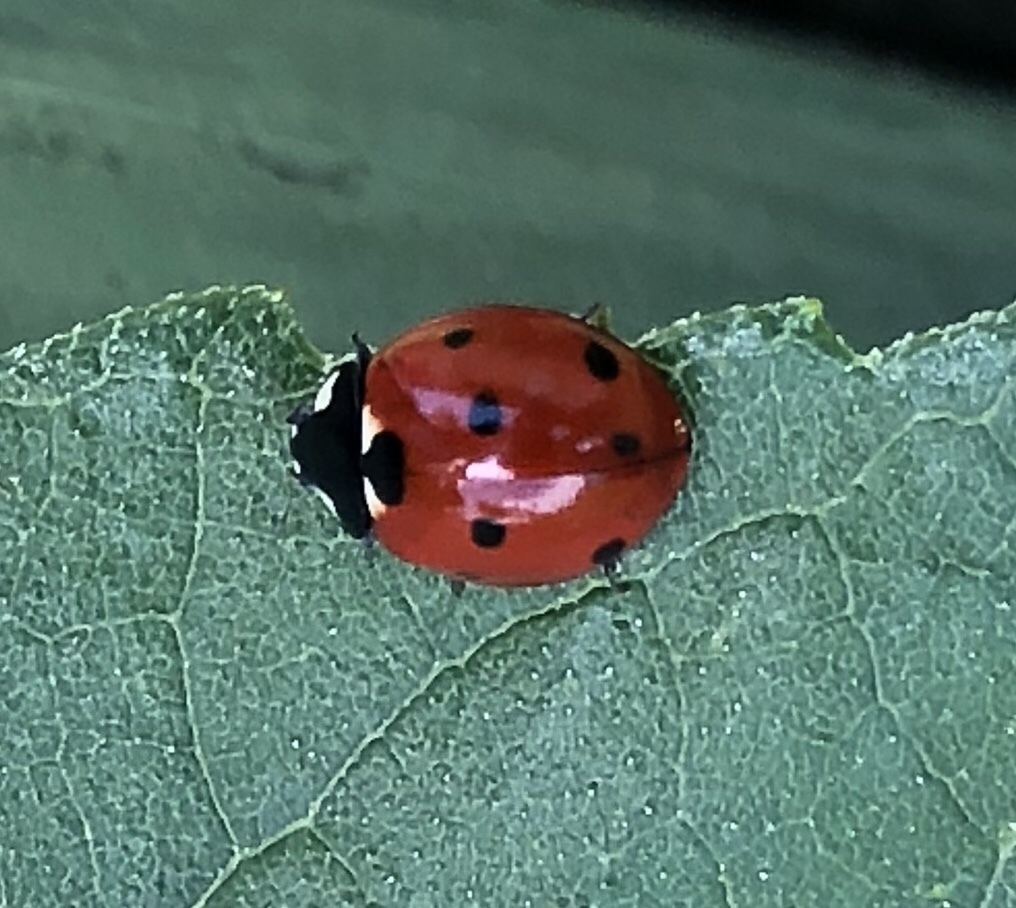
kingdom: Animalia
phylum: Arthropoda
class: Insecta
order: Coleoptera
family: Coccinellidae
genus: Coccinella
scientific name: Coccinella septempunctata
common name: Sevenspotted lady beetle
